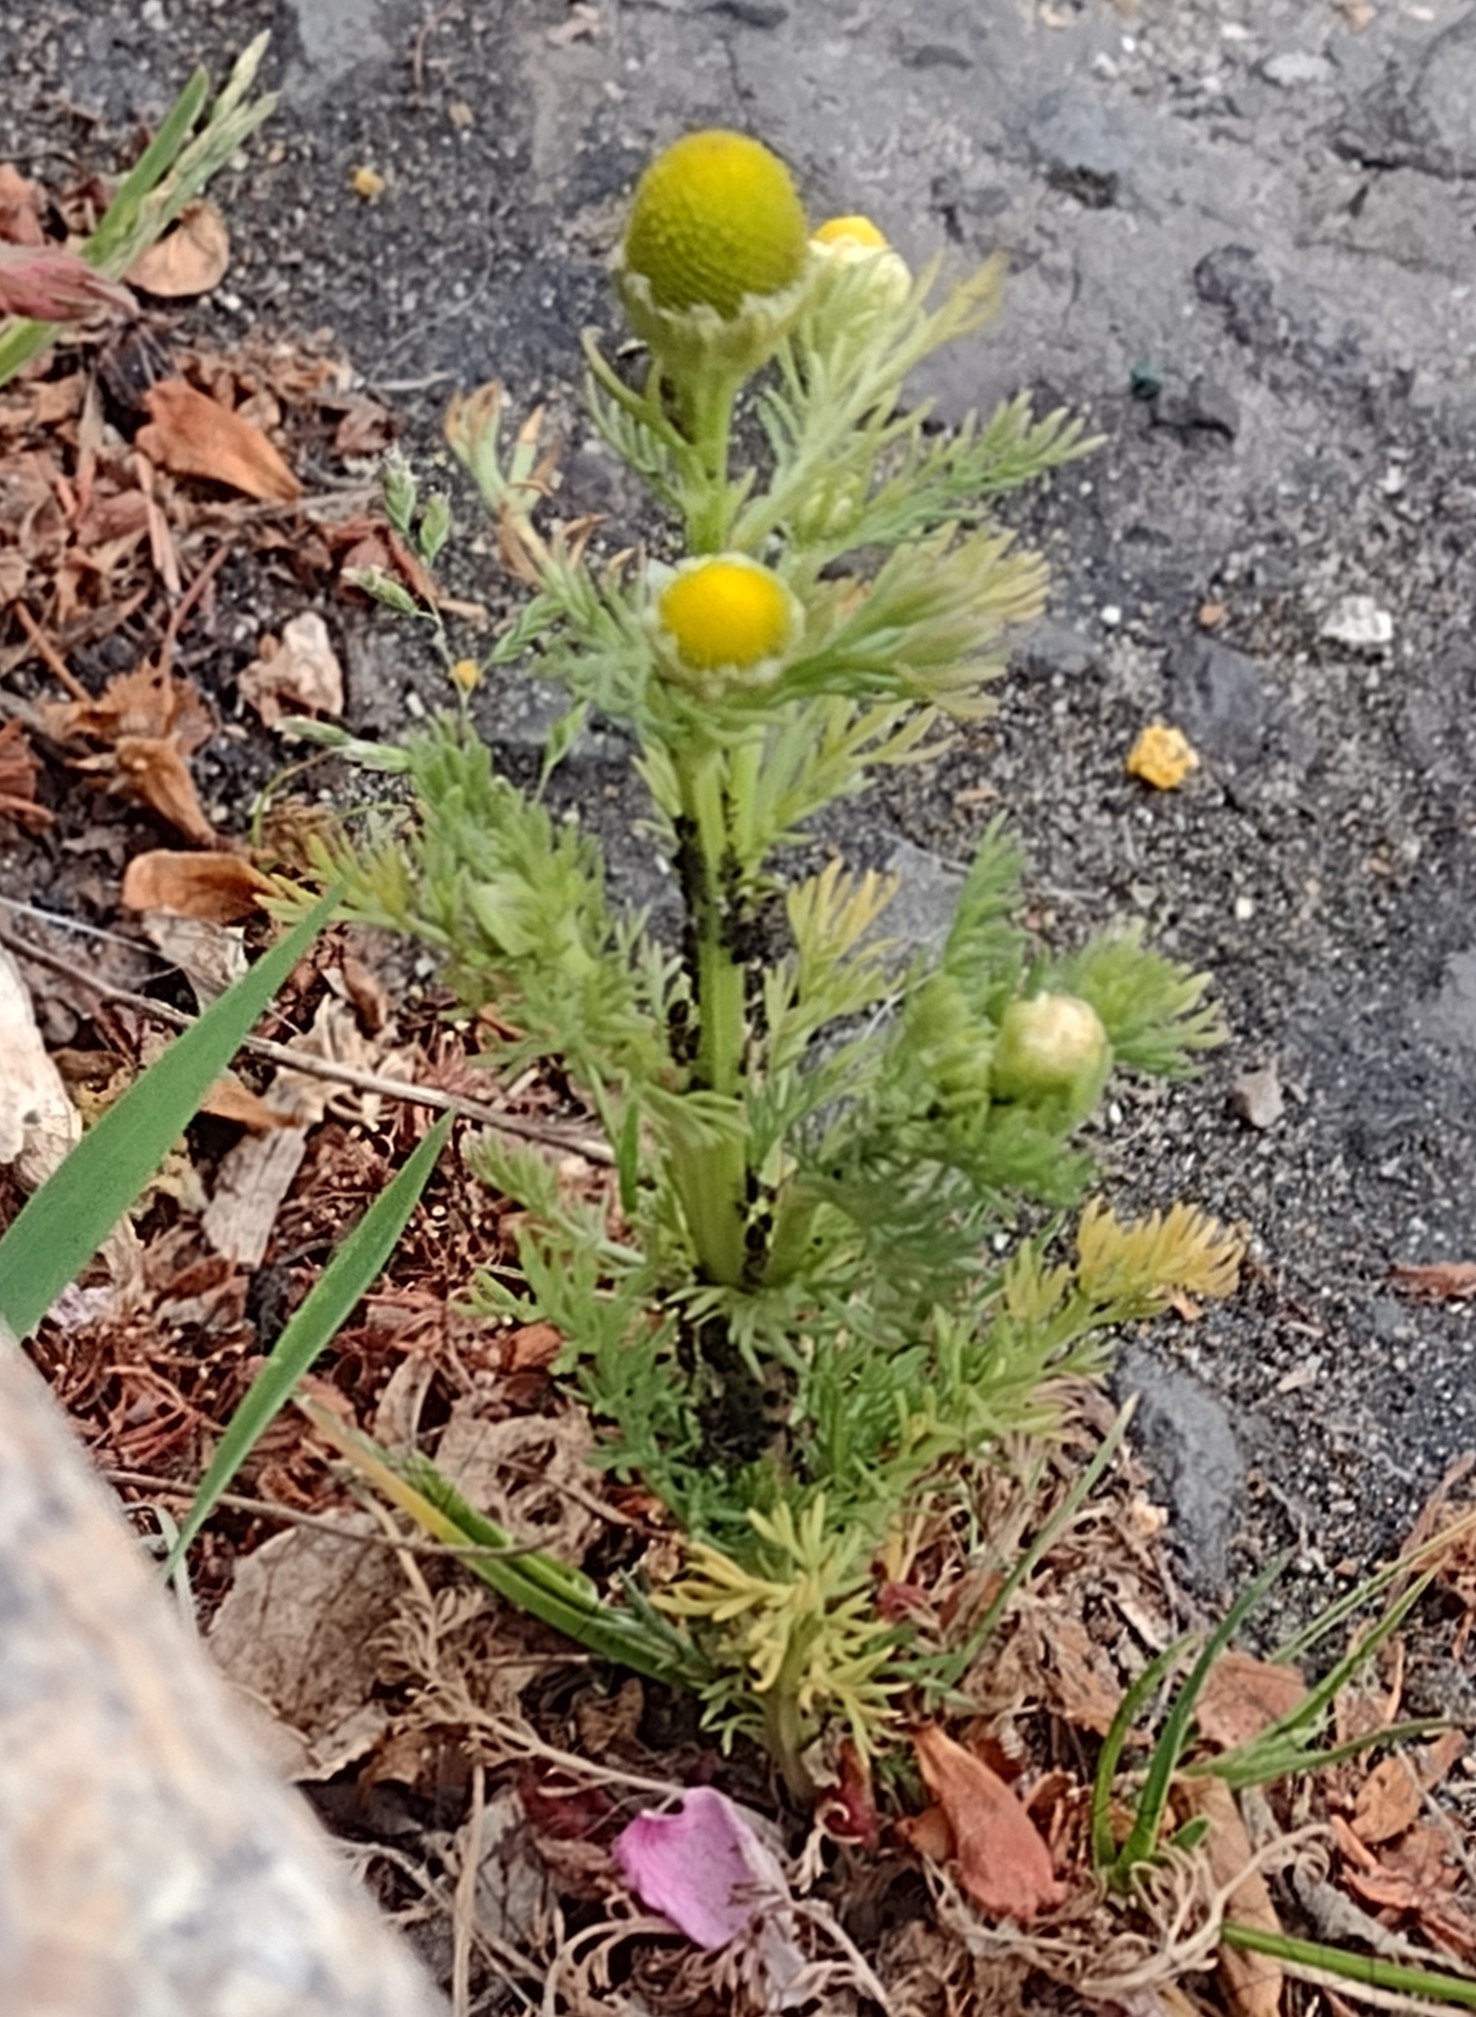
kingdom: Plantae
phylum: Tracheophyta
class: Magnoliopsida
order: Asterales
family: Asteraceae
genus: Matricaria
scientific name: Matricaria discoidea
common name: Disc mayweed
